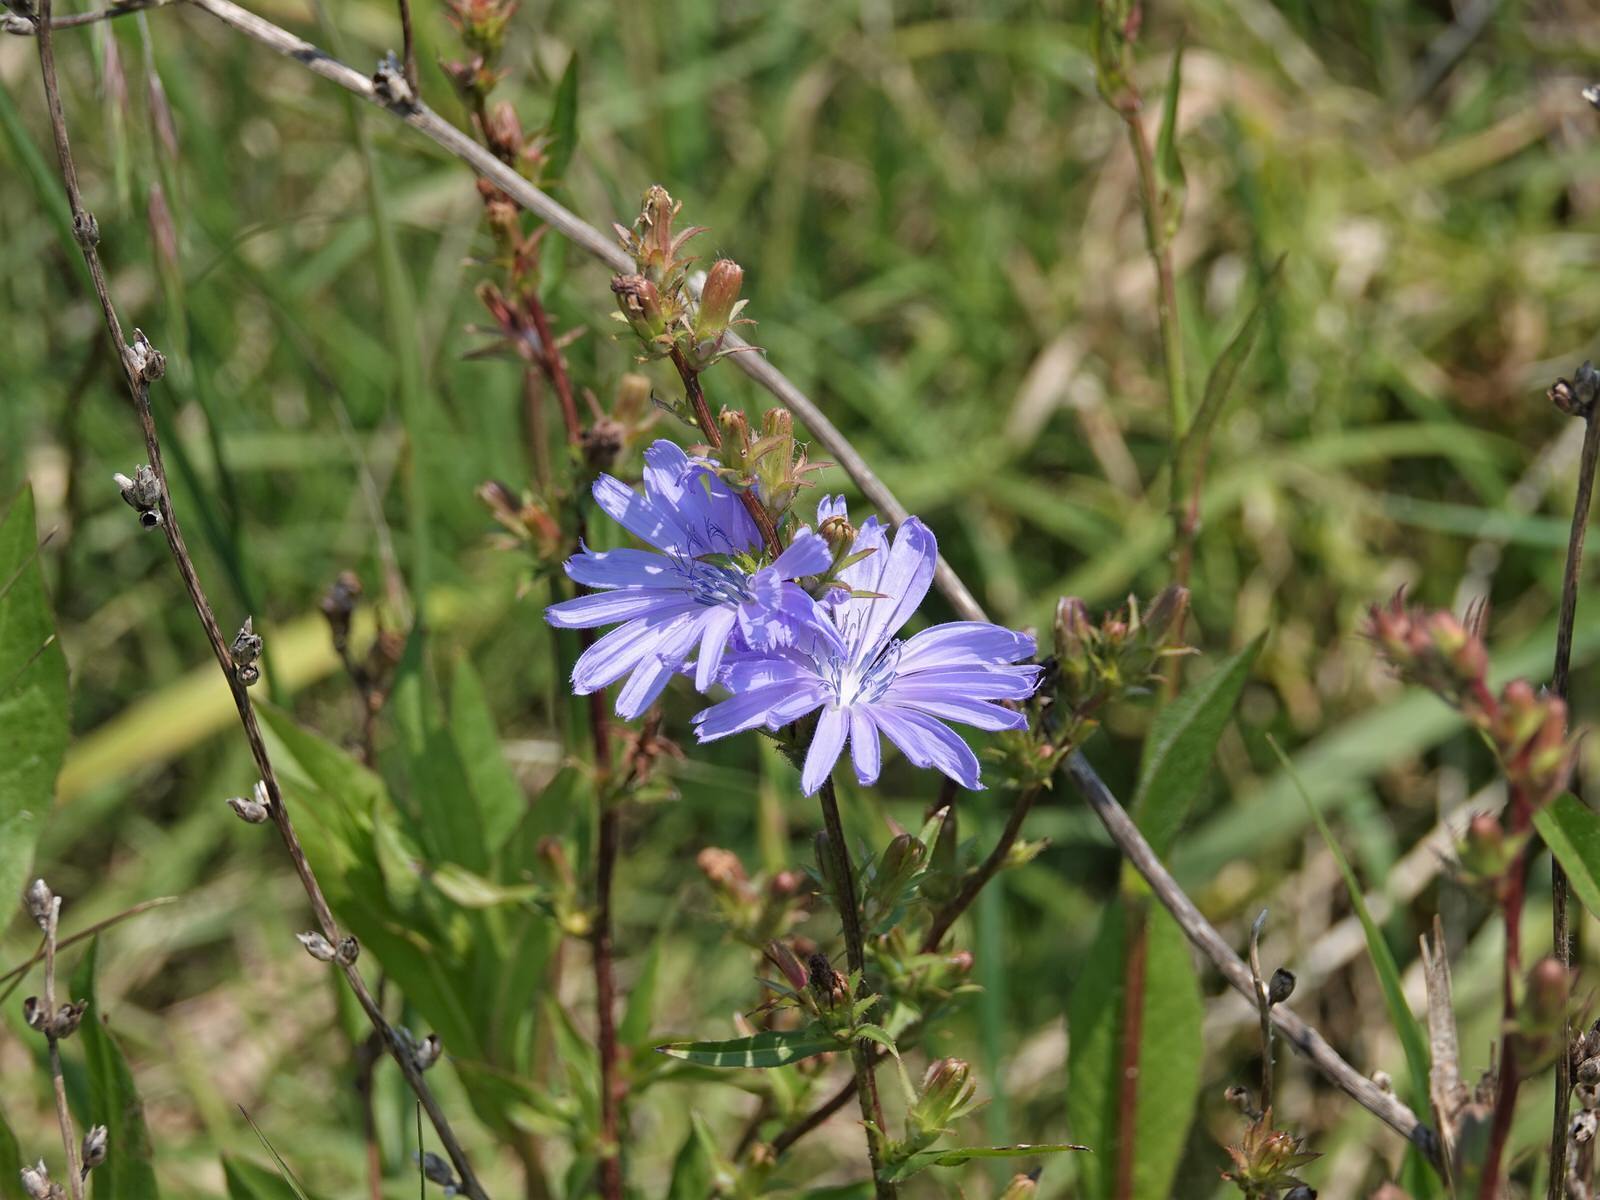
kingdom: Plantae
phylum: Tracheophyta
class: Magnoliopsida
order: Asterales
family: Asteraceae
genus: Cichorium
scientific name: Cichorium intybus
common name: Chicory
